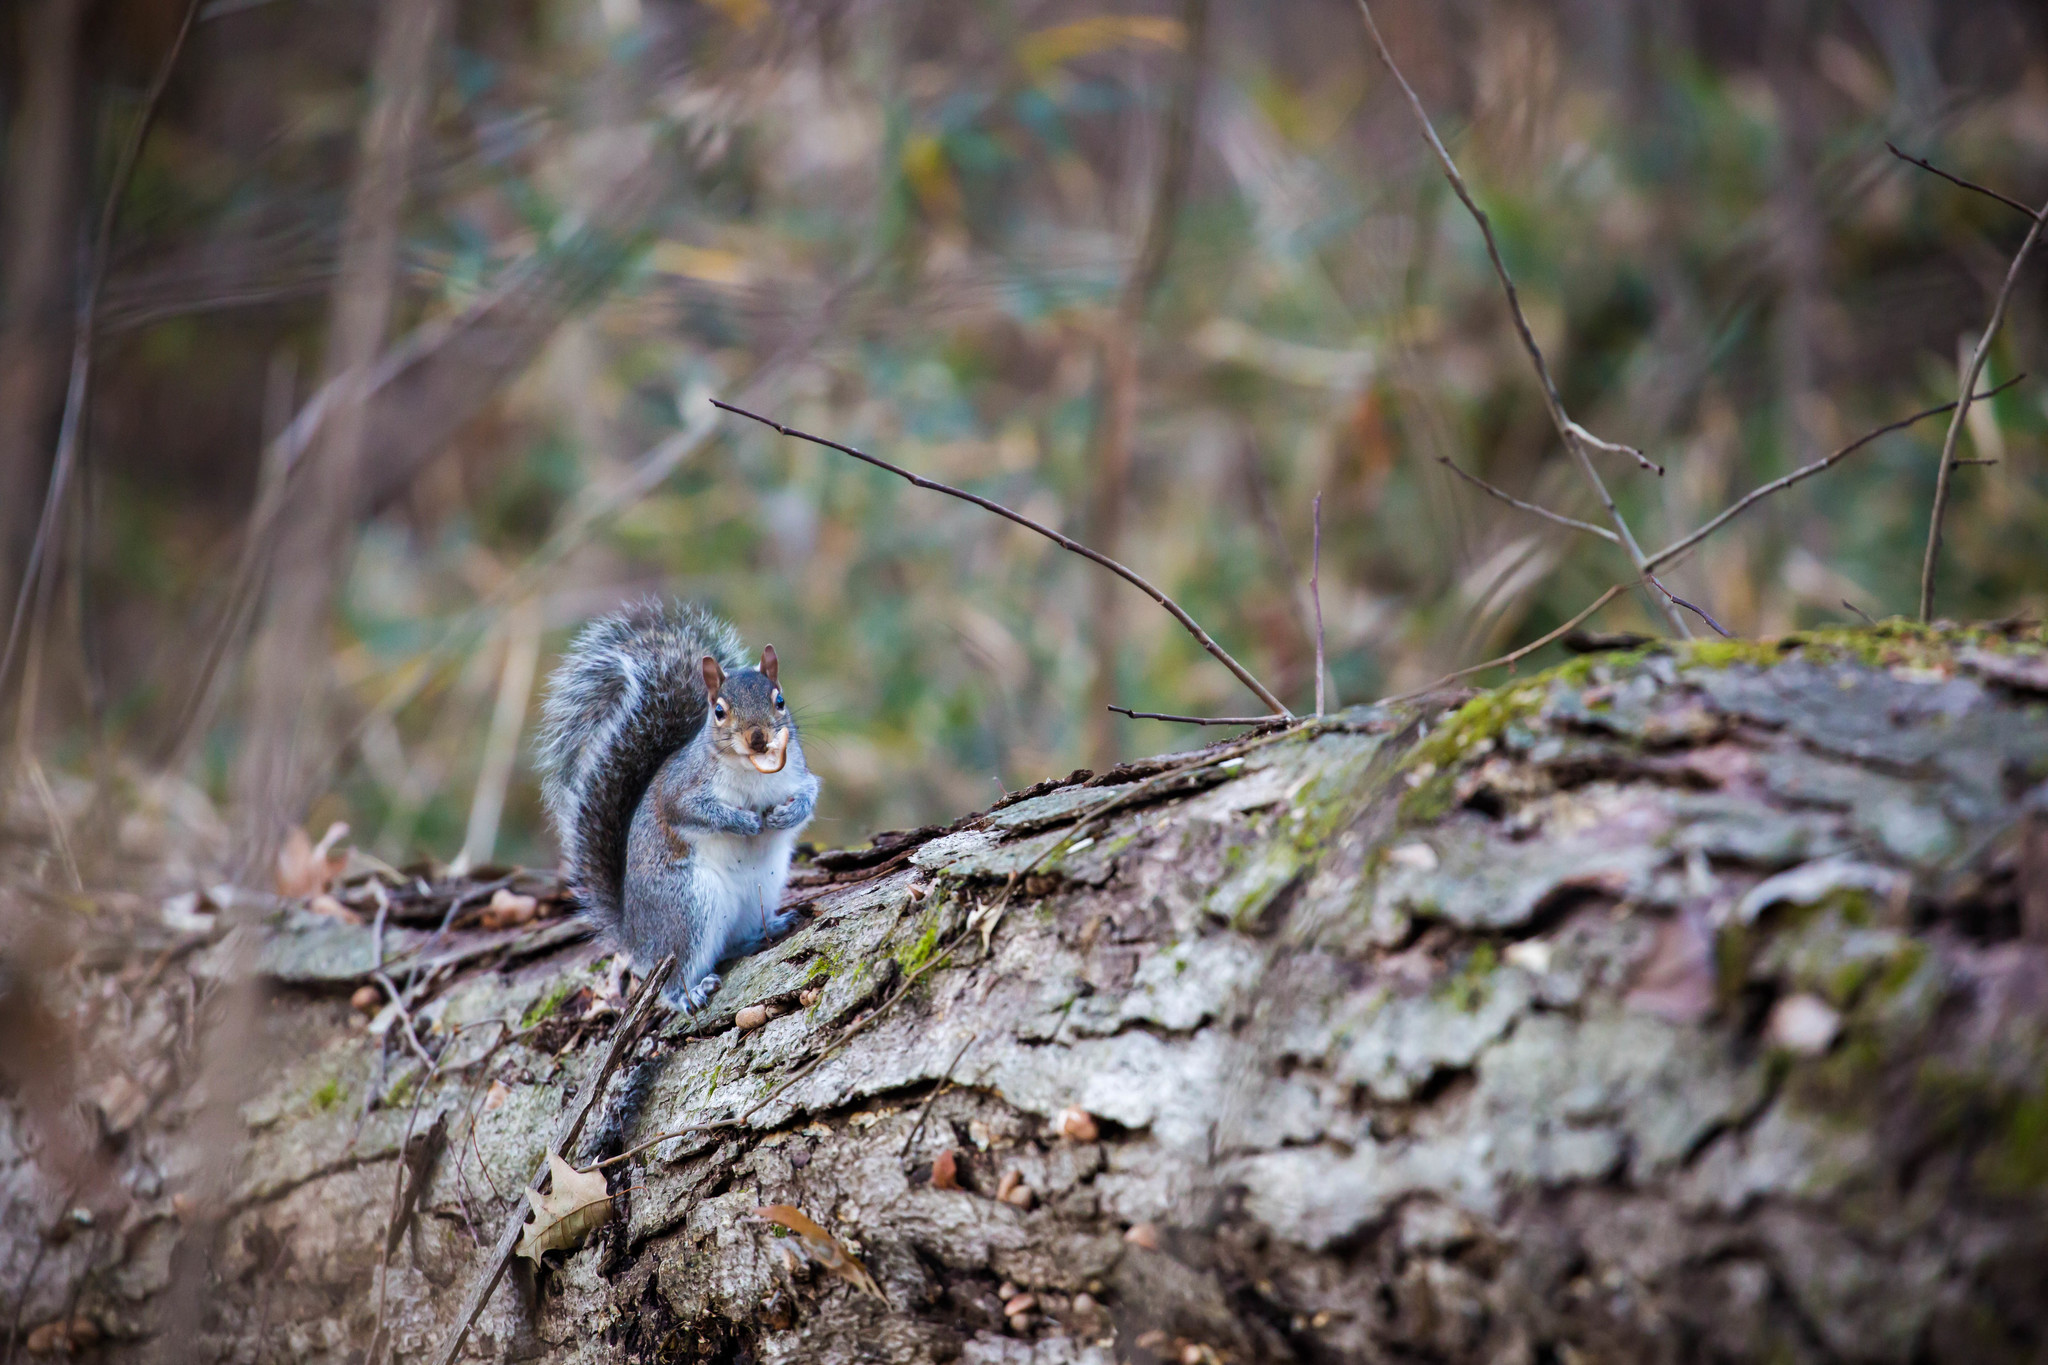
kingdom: Animalia
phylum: Chordata
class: Mammalia
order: Rodentia
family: Sciuridae
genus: Sciurus
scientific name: Sciurus carolinensis
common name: Eastern gray squirrel
